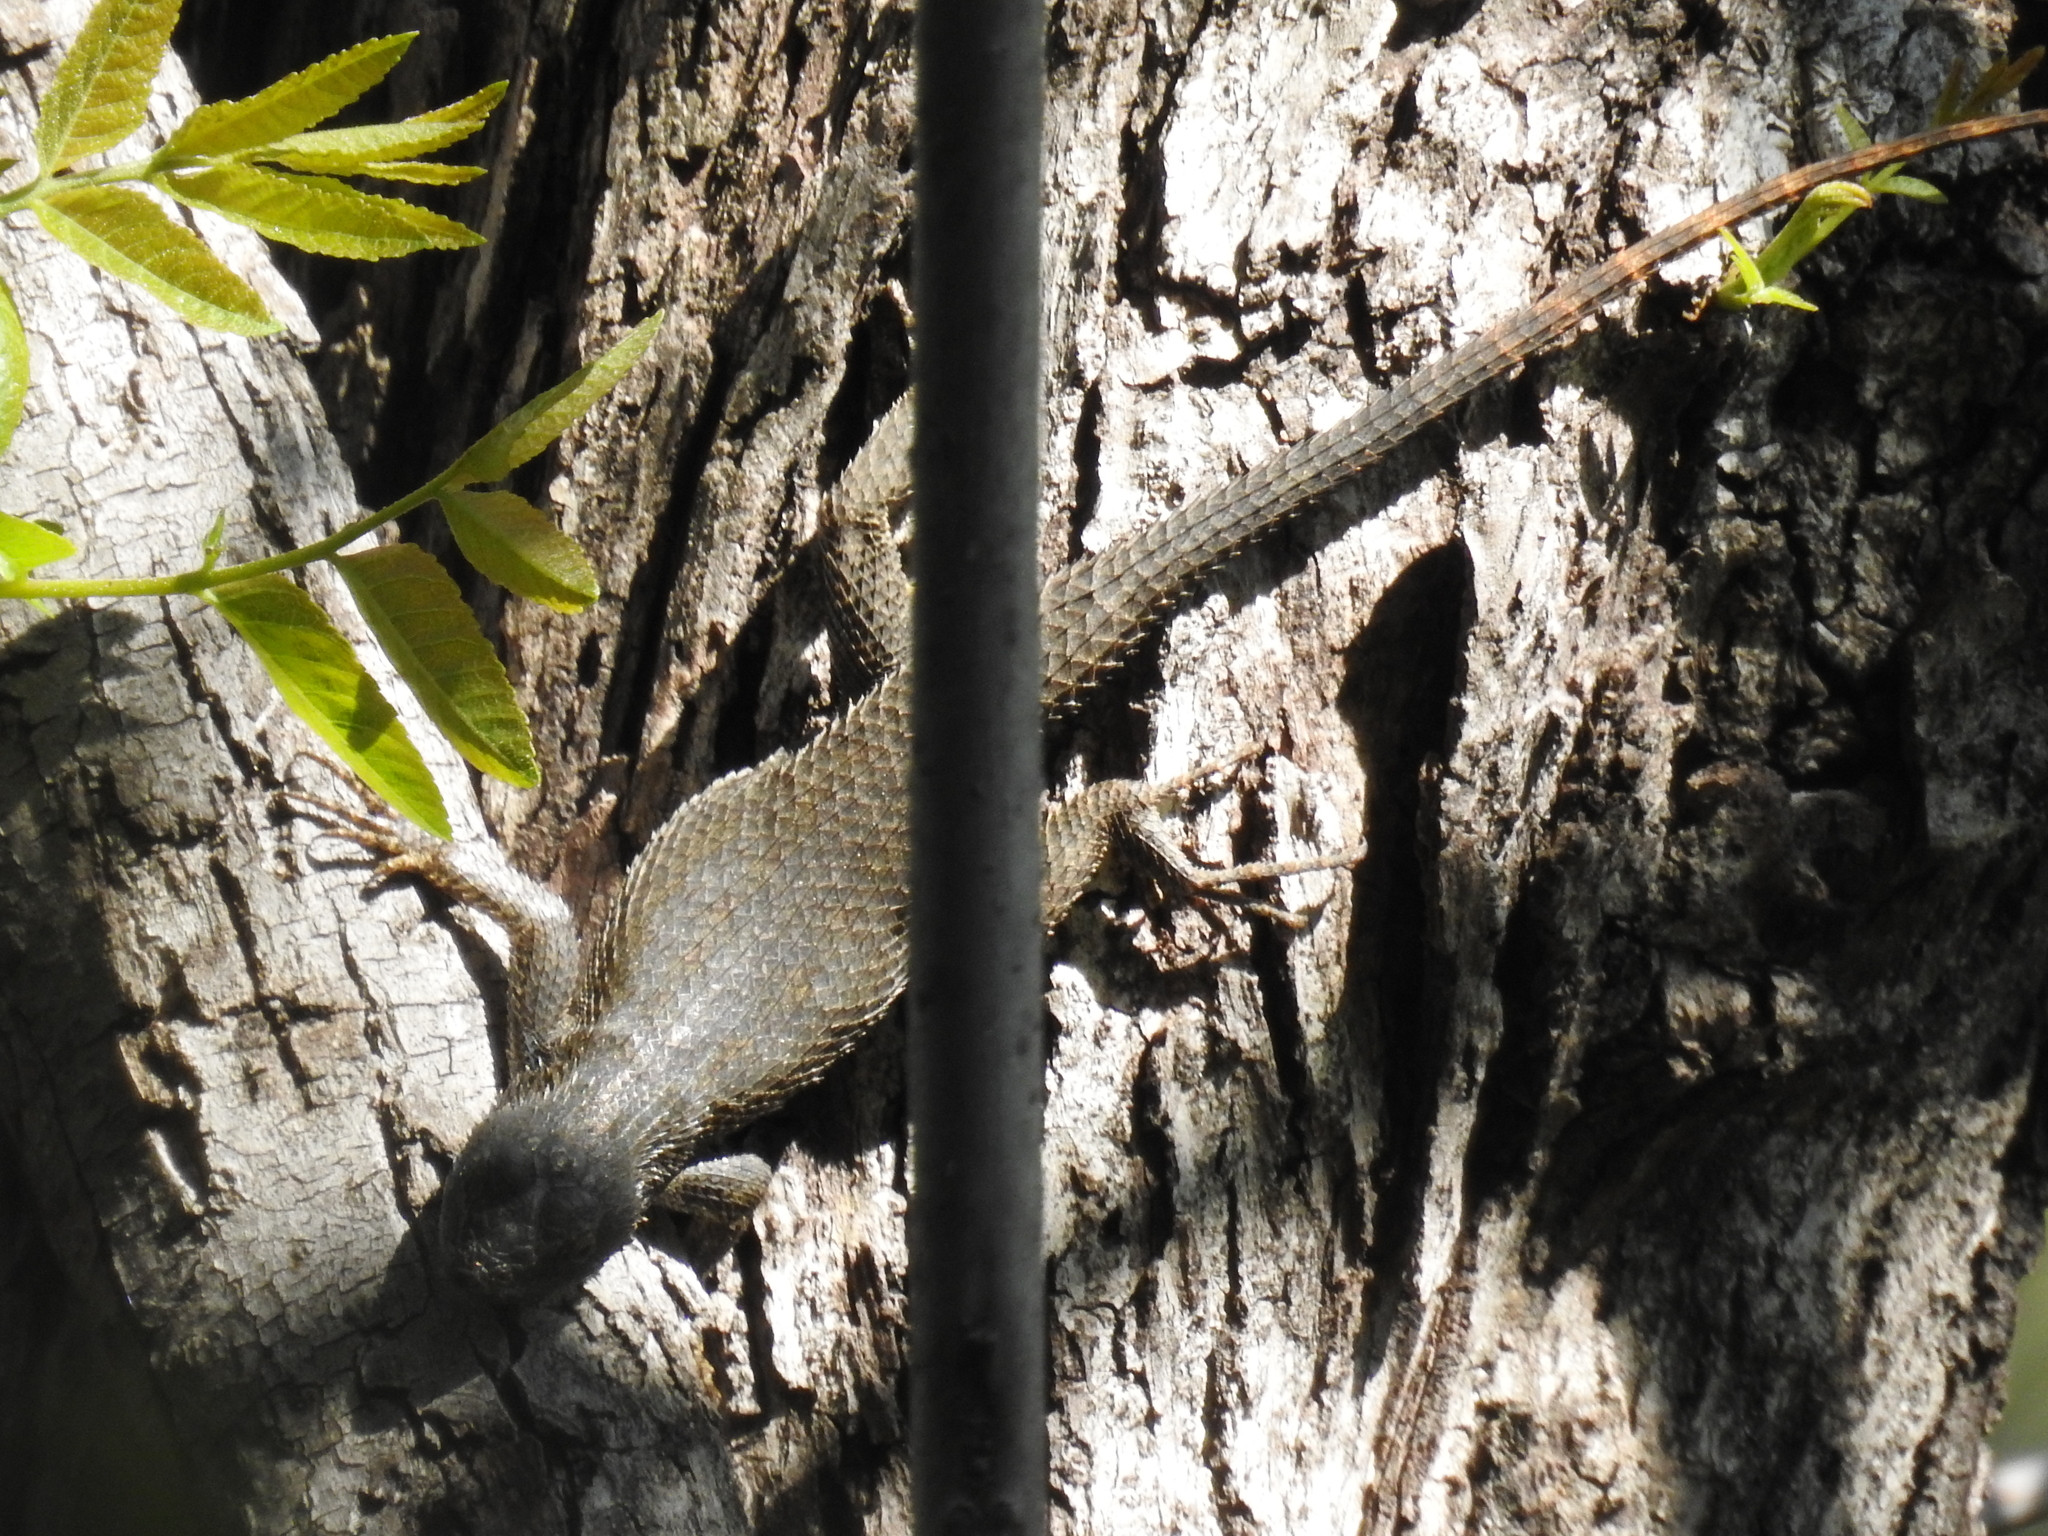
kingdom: Animalia
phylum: Chordata
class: Squamata
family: Phrynosomatidae
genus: Sceloporus
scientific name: Sceloporus occidentalis
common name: Western fence lizard
